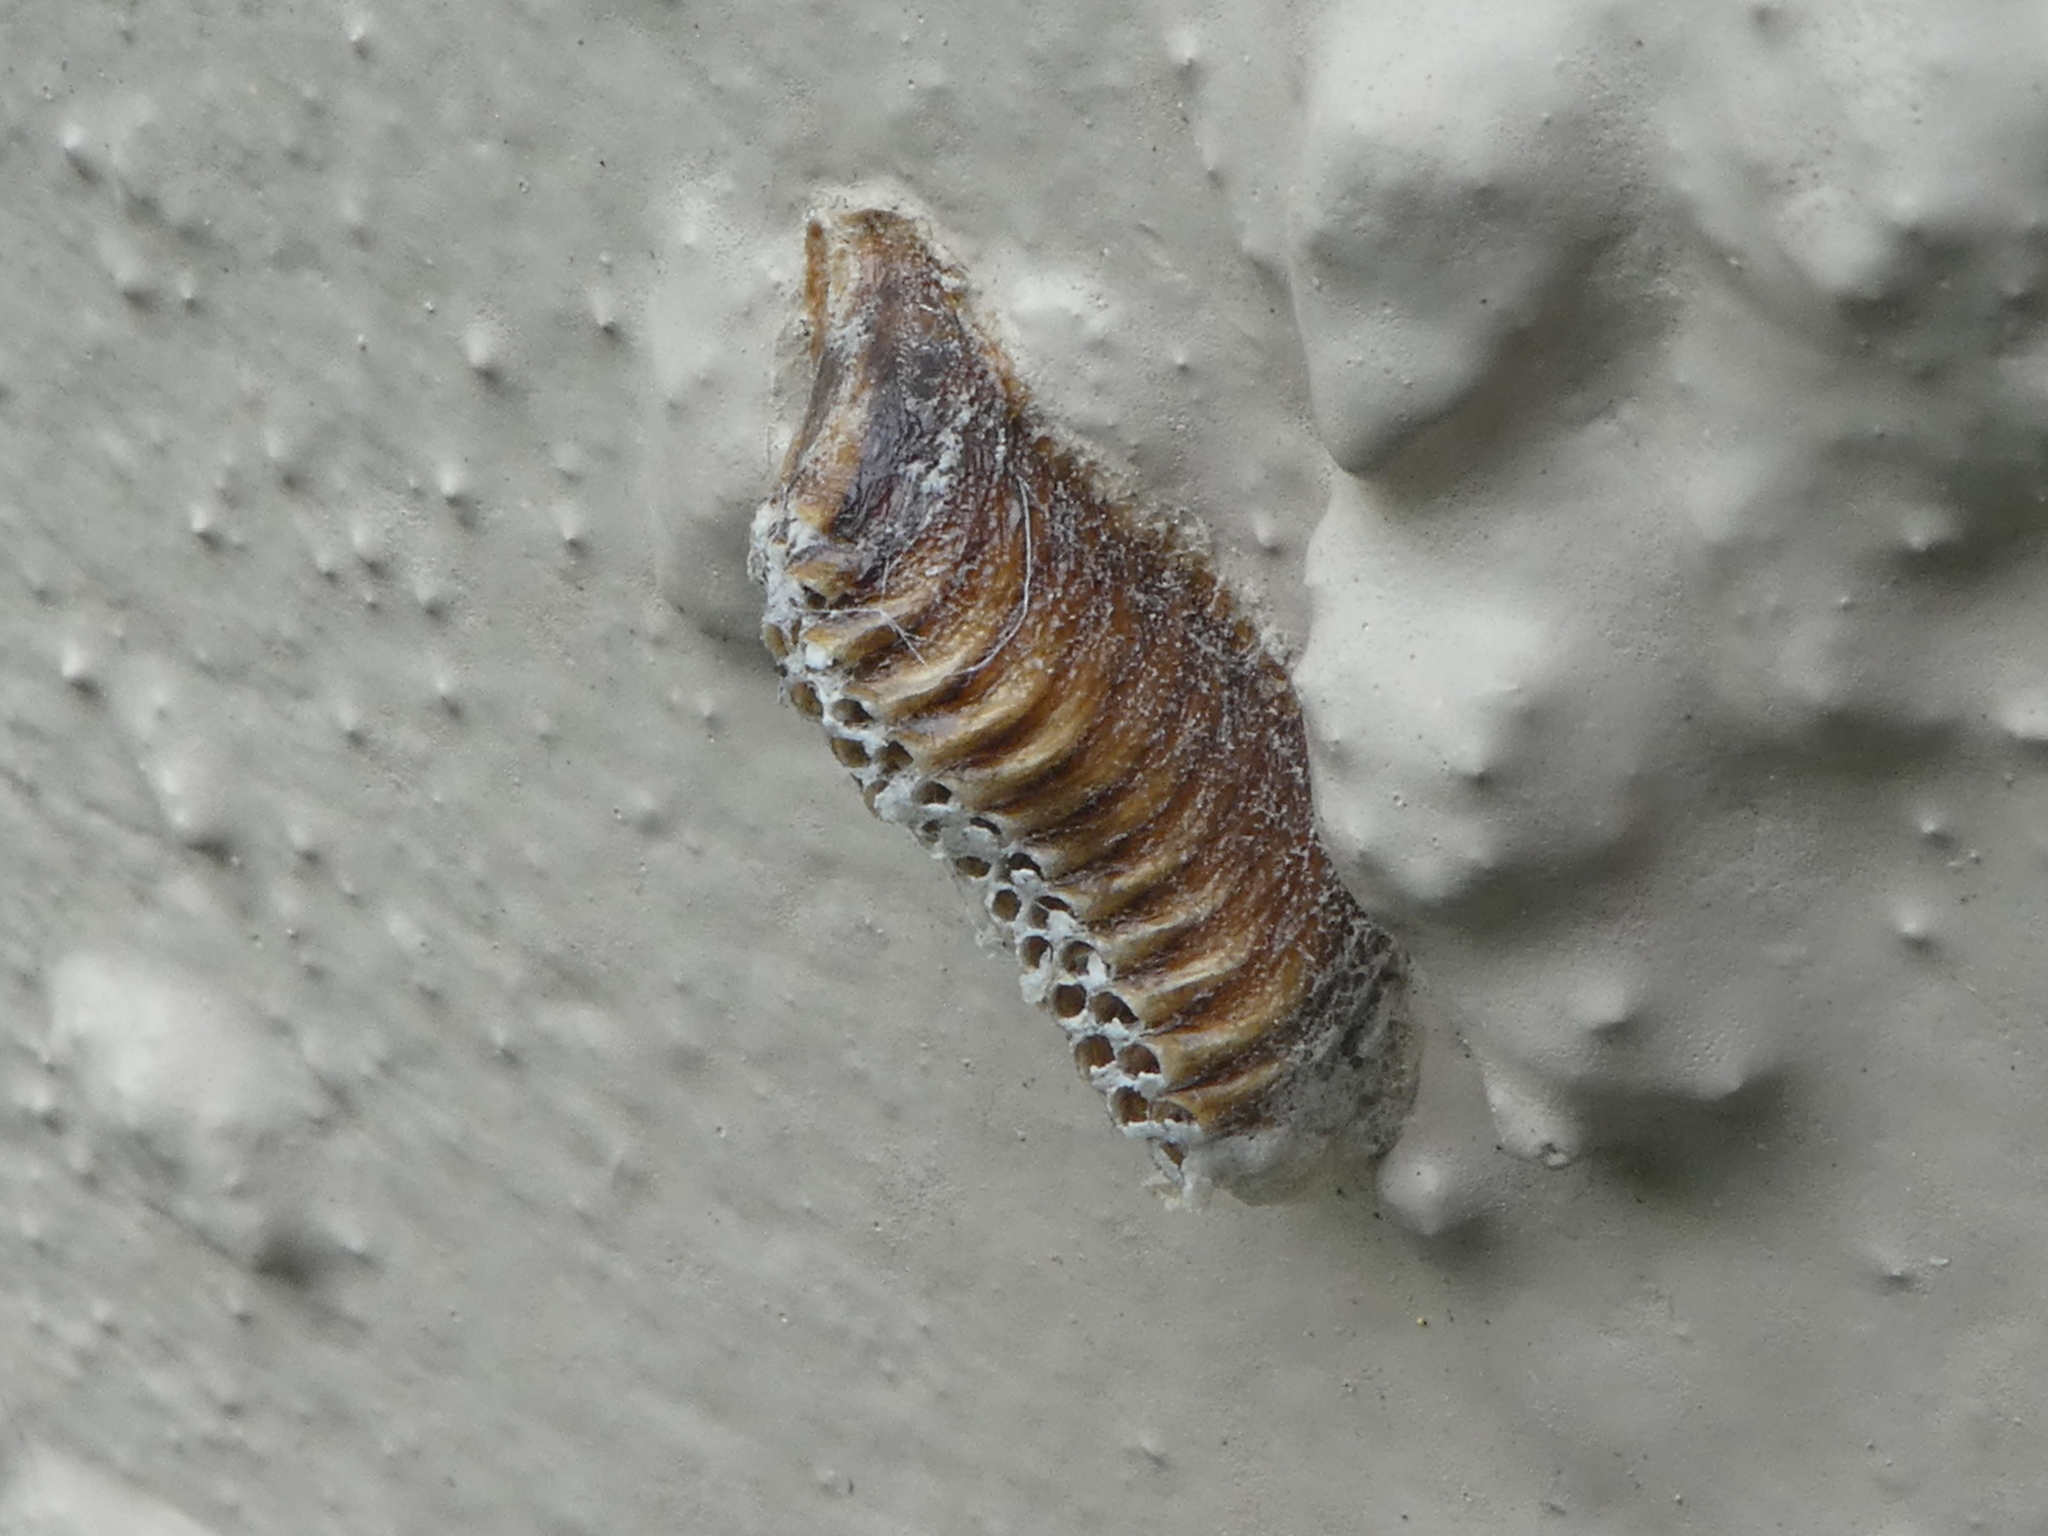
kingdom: Animalia
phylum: Arthropoda
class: Insecta
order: Mantodea
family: Mantidae
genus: Orthodera
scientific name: Orthodera novaezealandiae
